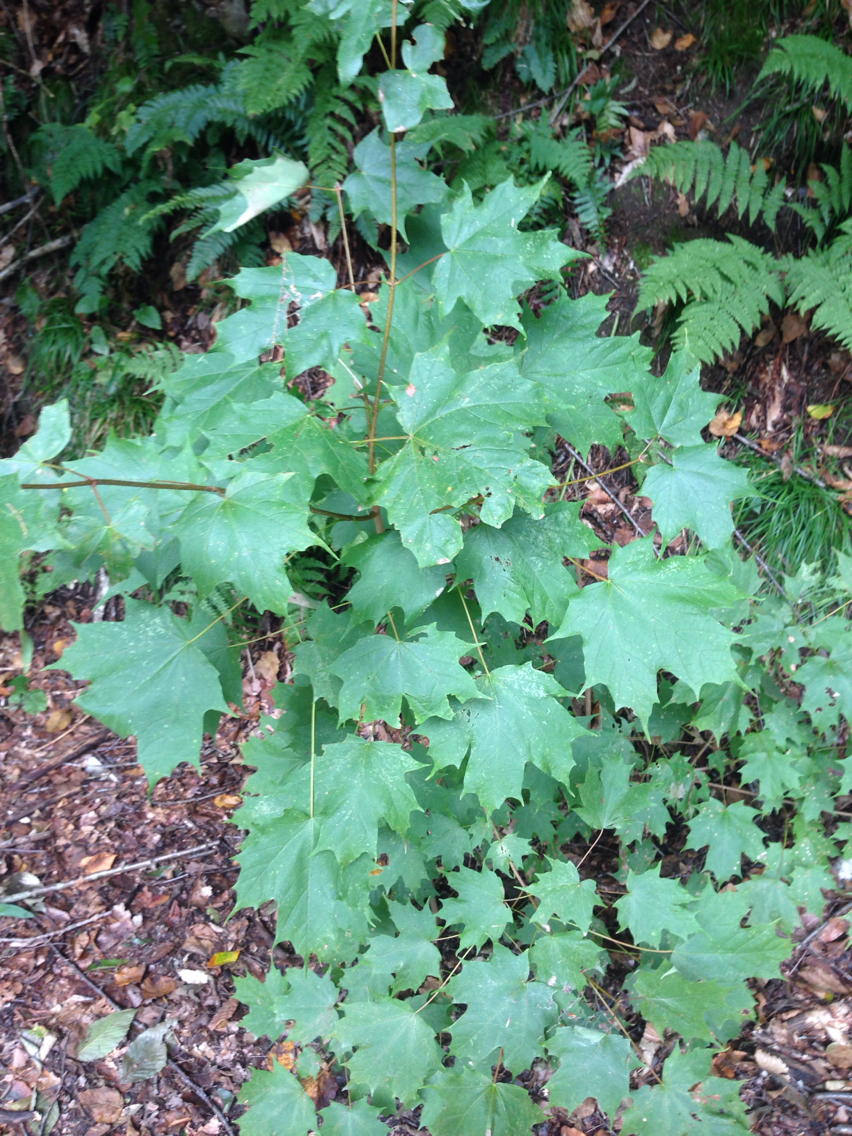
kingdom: Plantae
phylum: Tracheophyta
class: Magnoliopsida
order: Sapindales
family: Sapindaceae
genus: Acer
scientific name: Acer saccharum
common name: Sugar maple
